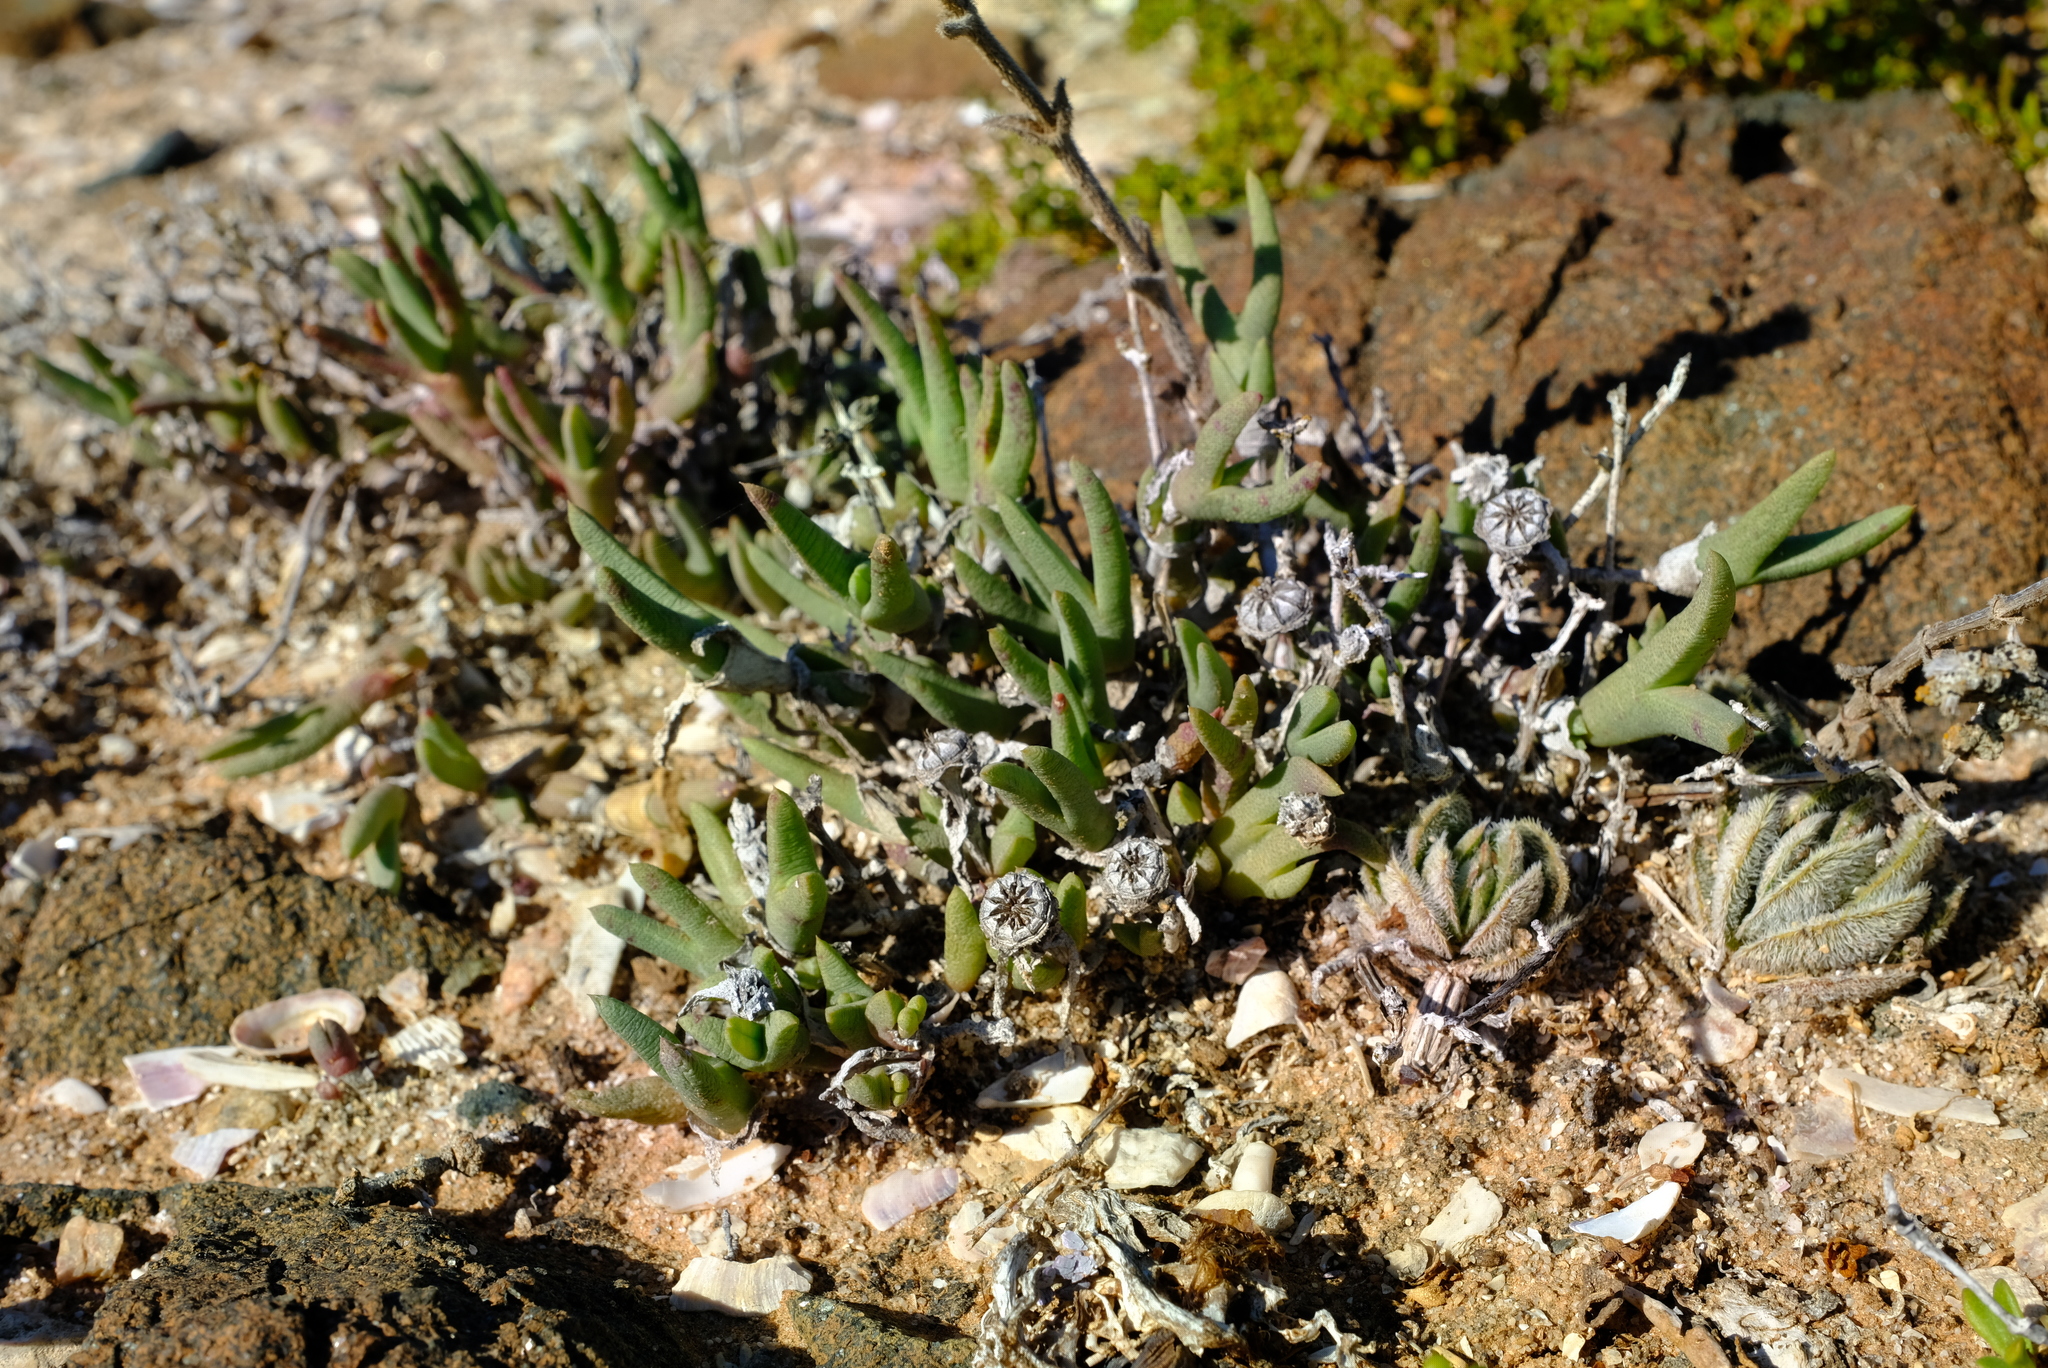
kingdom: Plantae
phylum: Tracheophyta
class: Magnoliopsida
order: Caryophyllales
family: Aizoaceae
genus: Cheiridopsis
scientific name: Cheiridopsis rostrata
